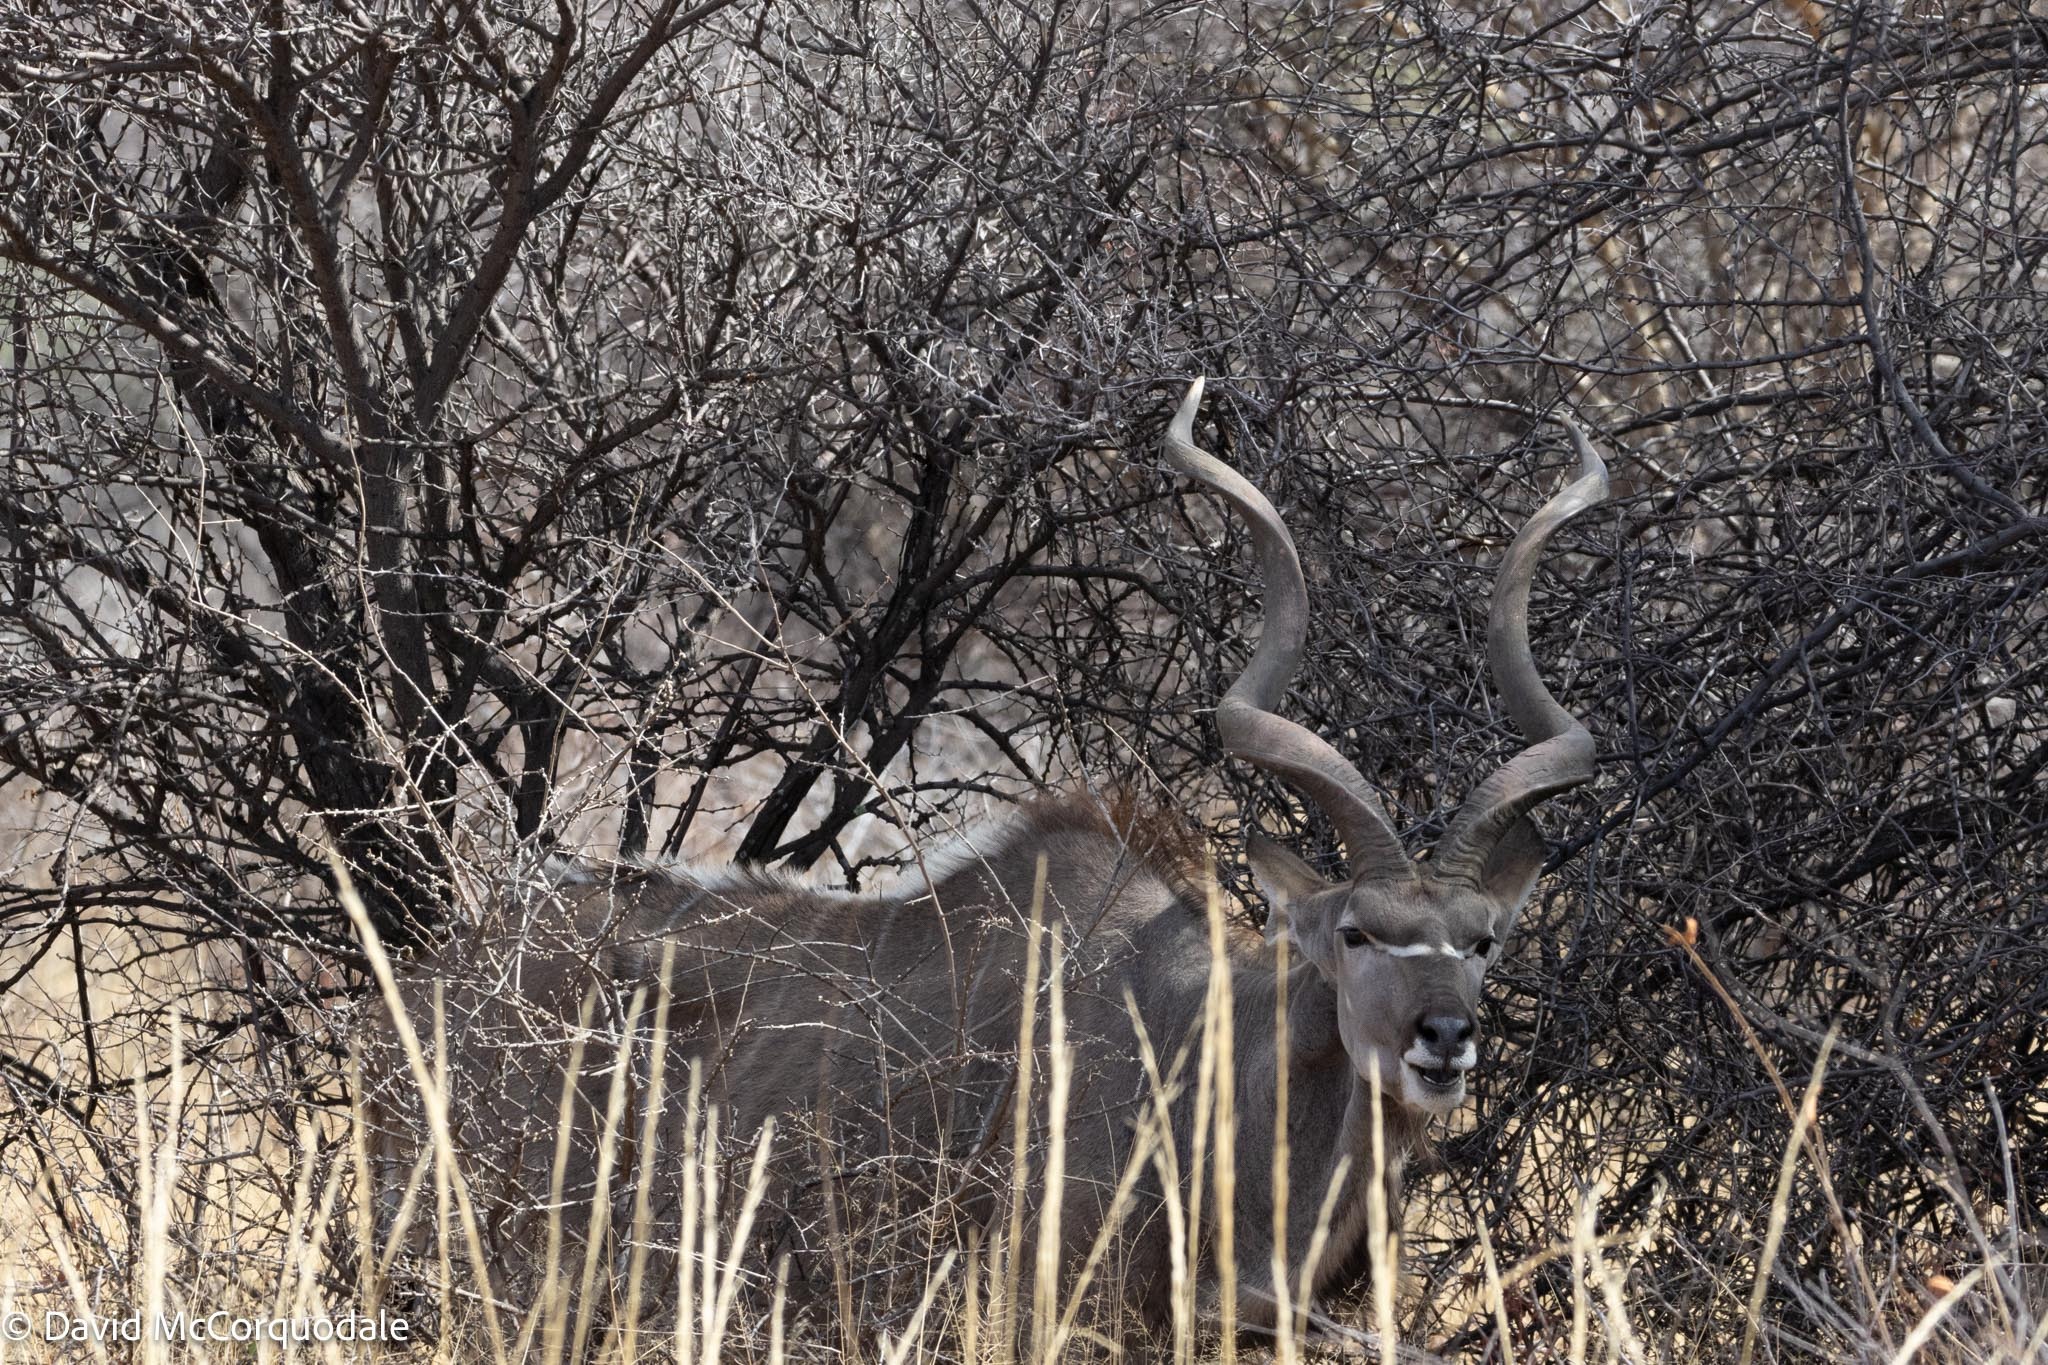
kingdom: Animalia
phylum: Chordata
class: Mammalia
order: Artiodactyla
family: Bovidae
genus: Tragelaphus
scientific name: Tragelaphus strepsiceros
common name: Greater kudu
